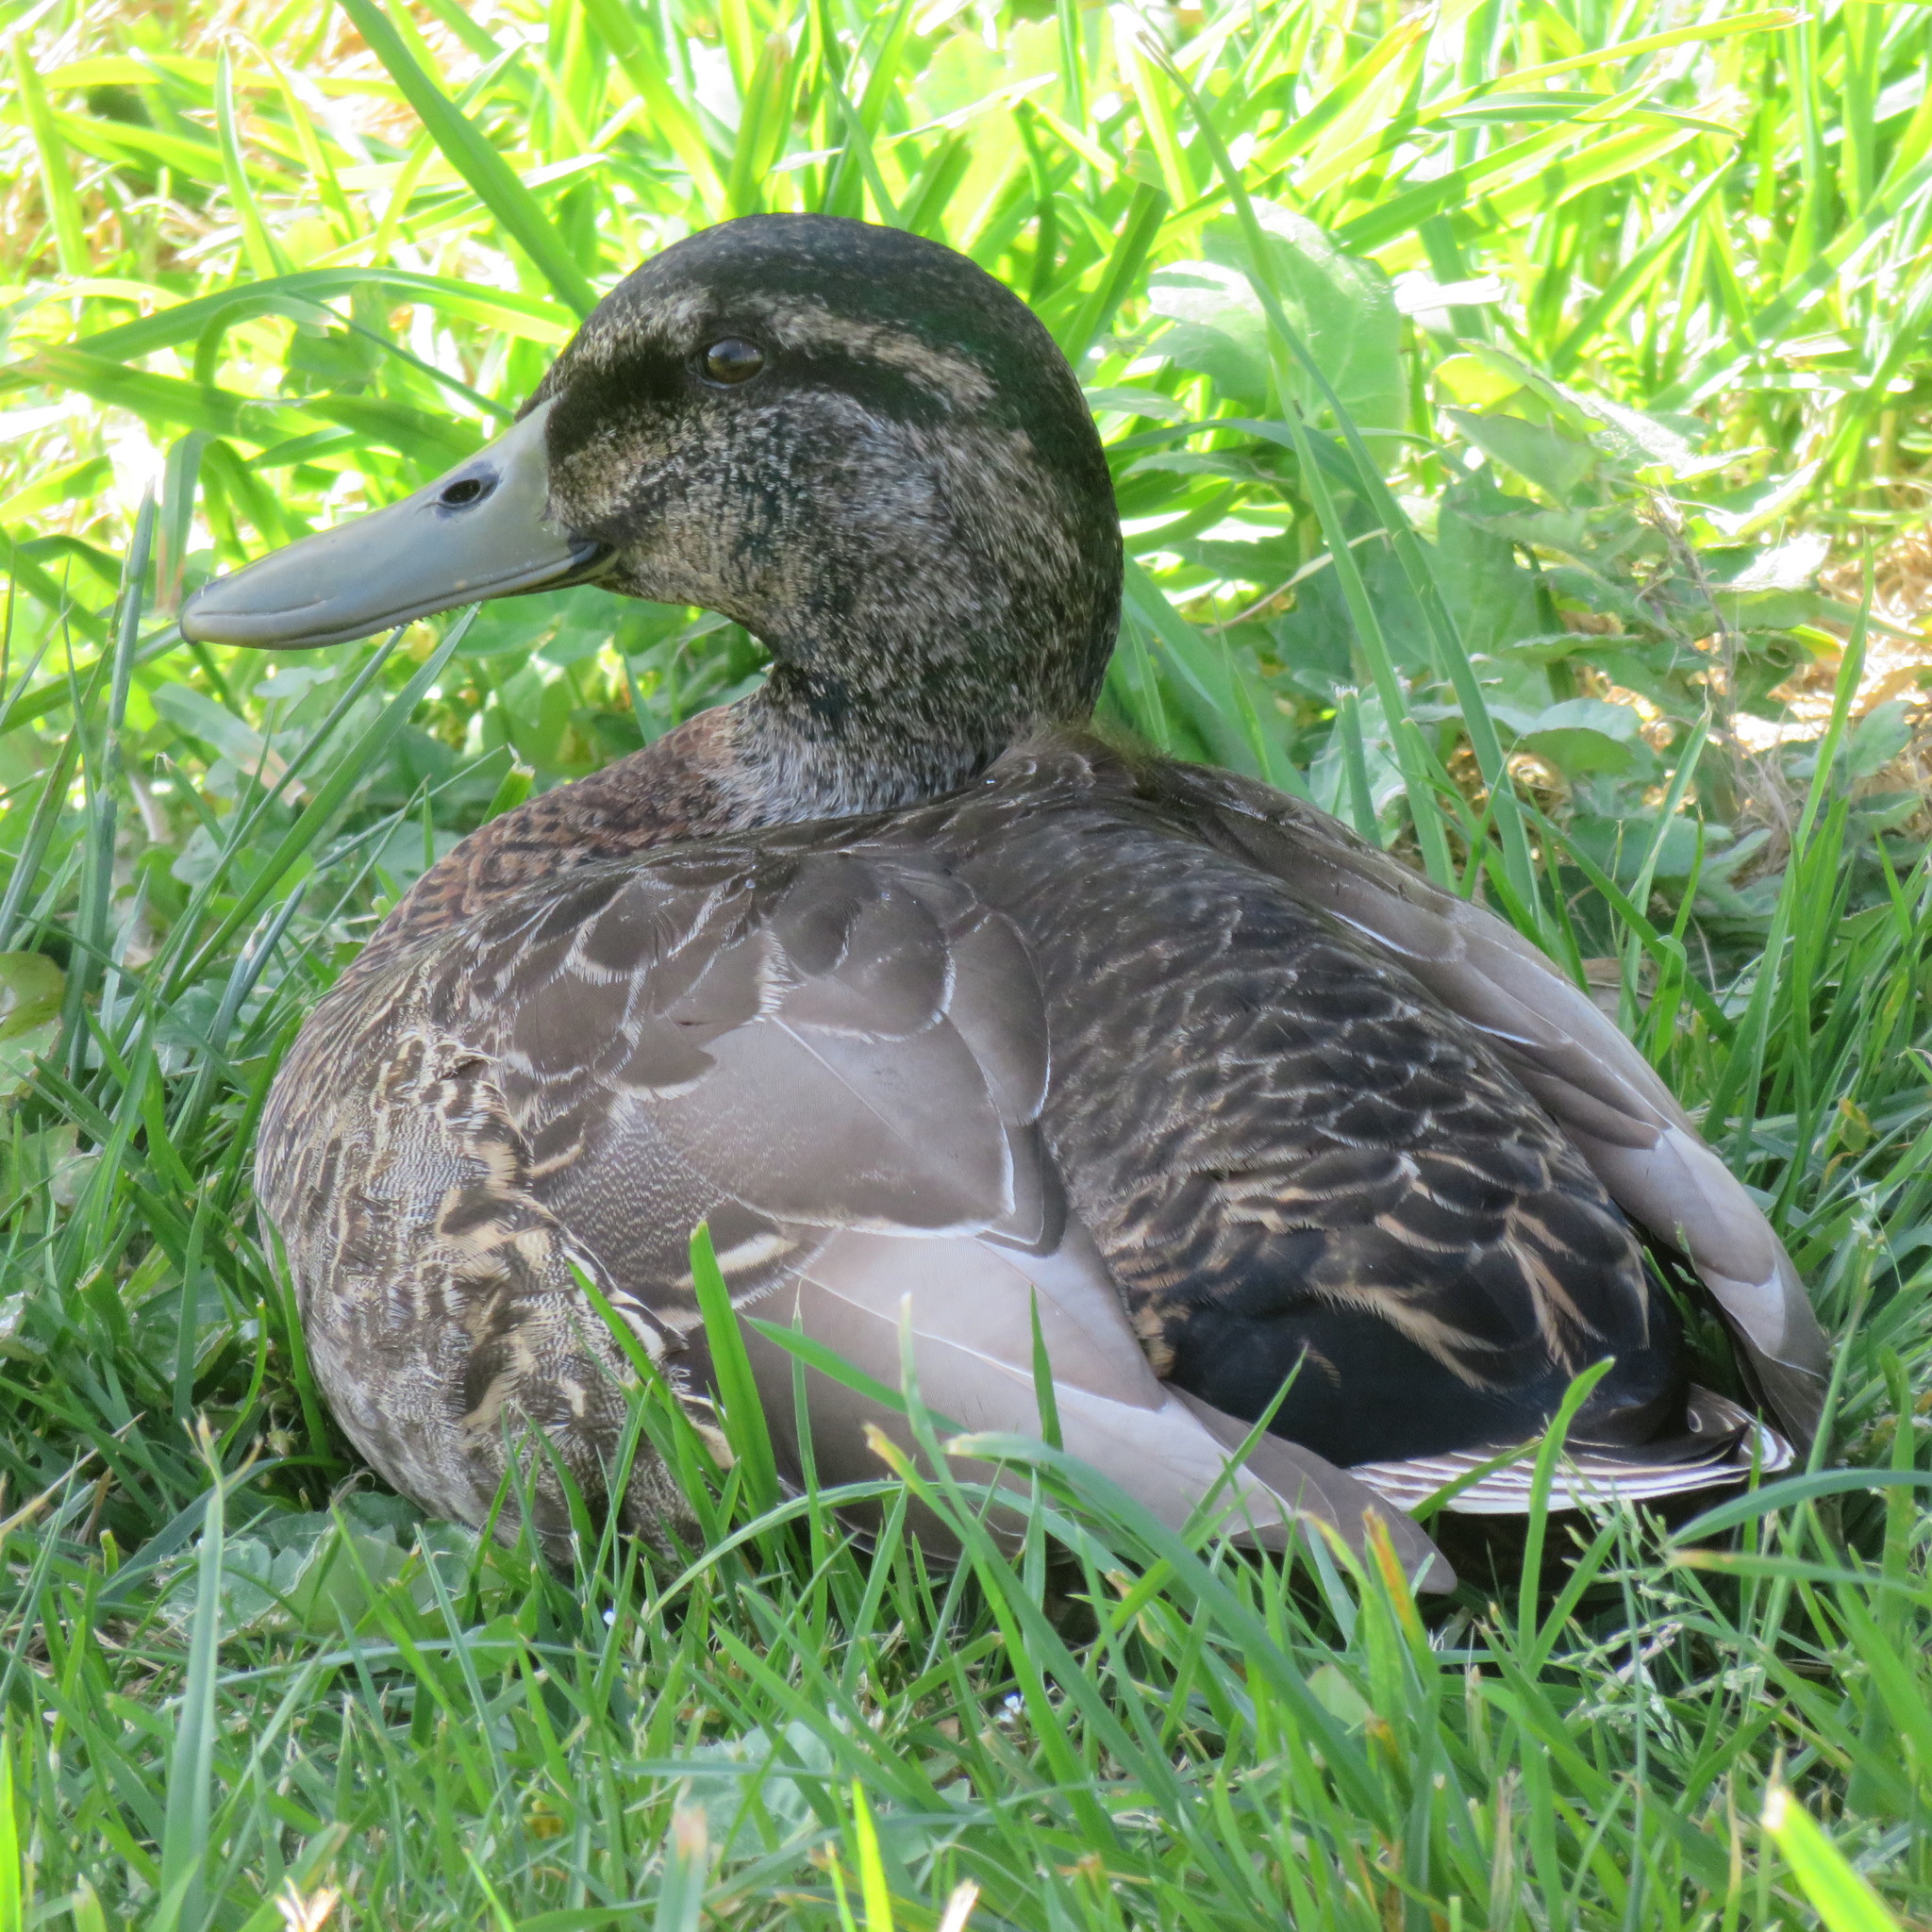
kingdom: Animalia
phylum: Chordata
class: Aves
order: Anseriformes
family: Anatidae
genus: Anas
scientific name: Anas
